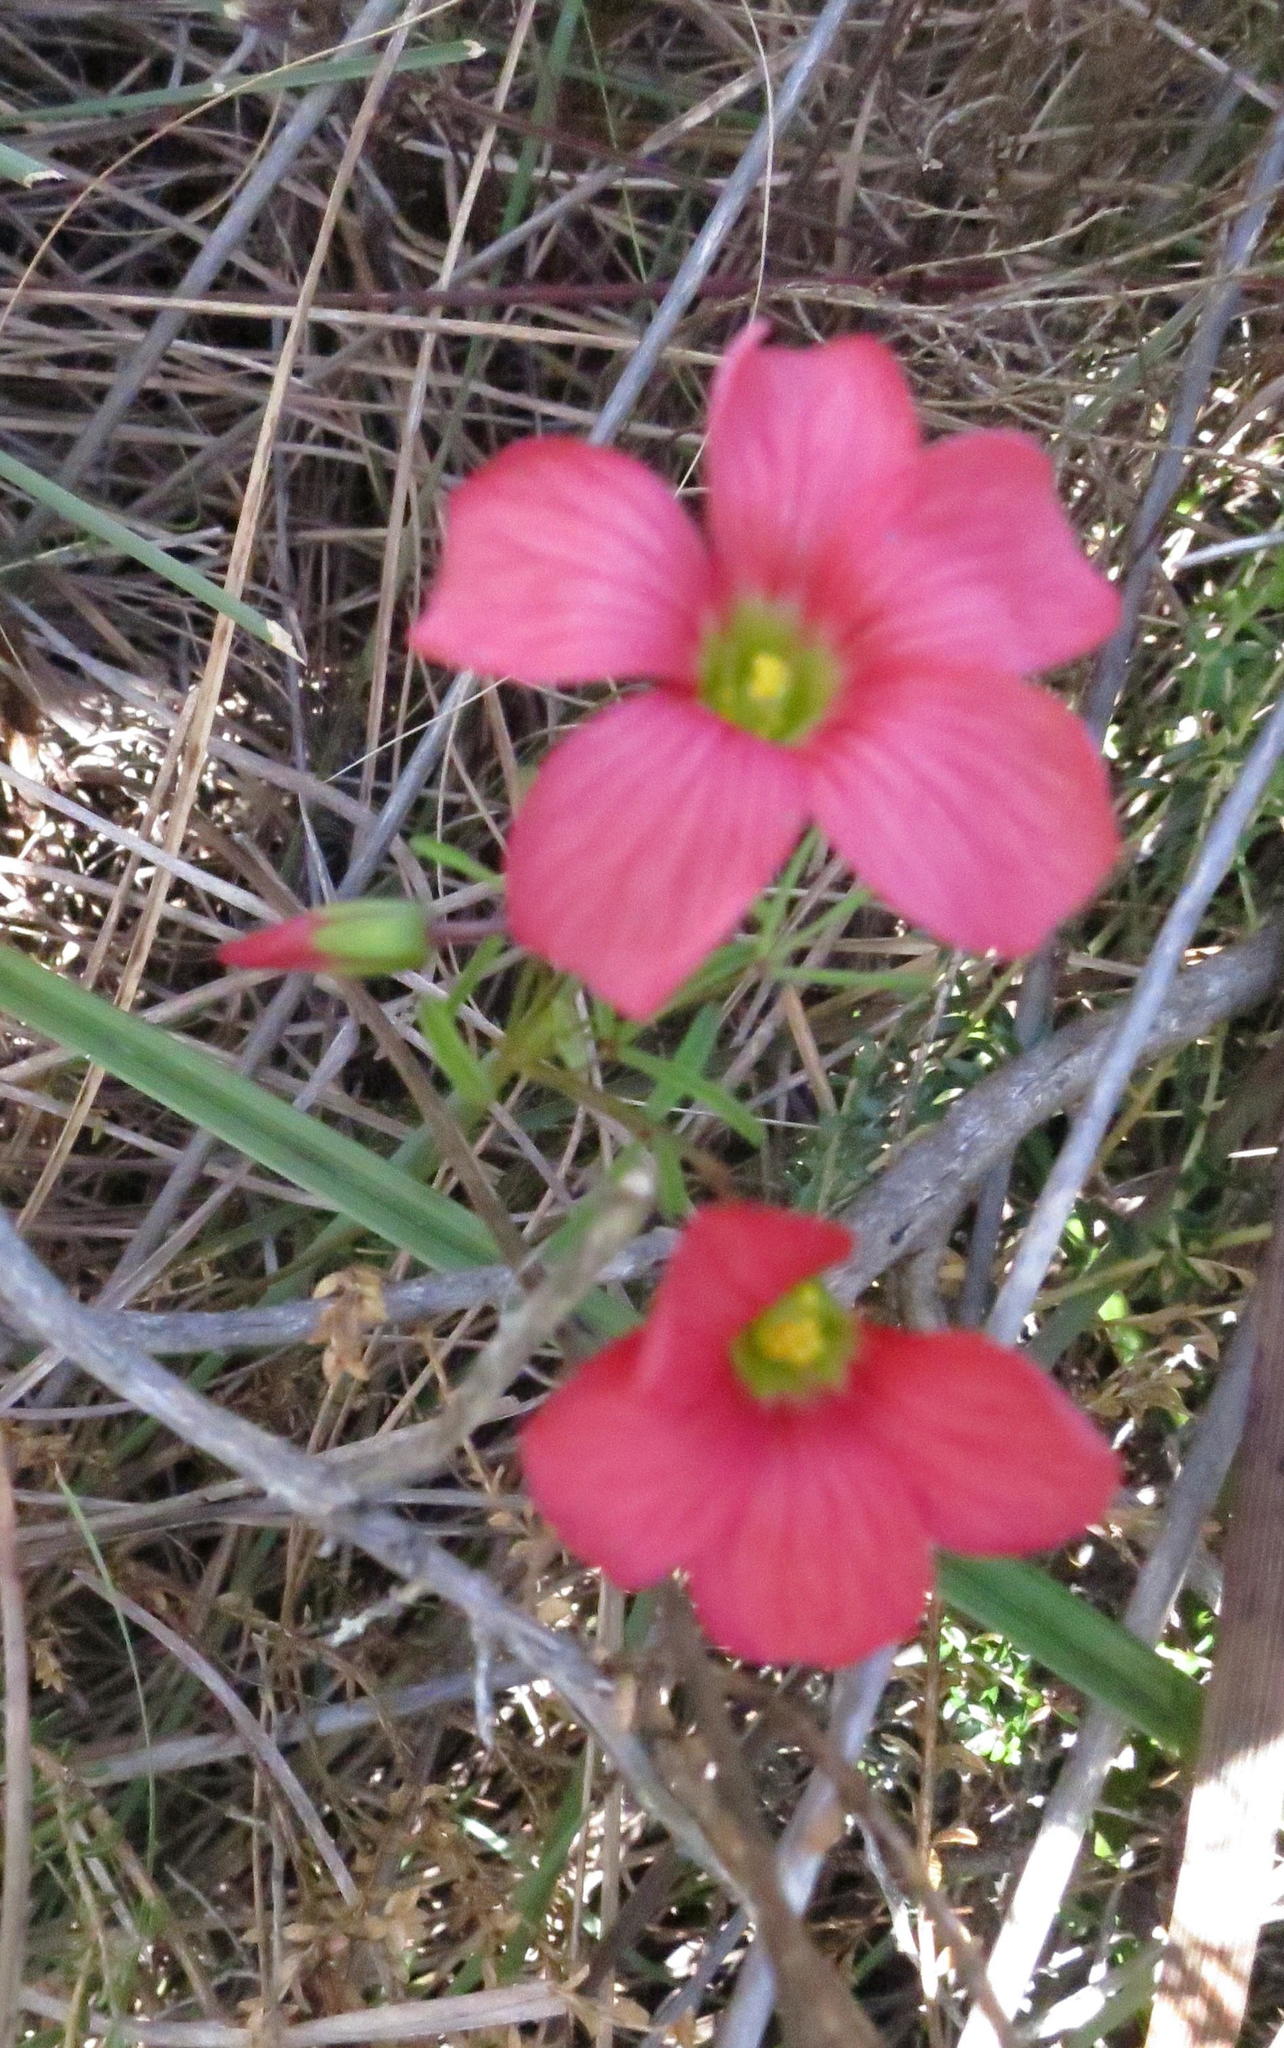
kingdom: Plantae
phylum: Tracheophyta
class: Magnoliopsida
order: Oxalidales
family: Oxalidaceae
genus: Oxalis
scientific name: Oxalis pendulifolia
